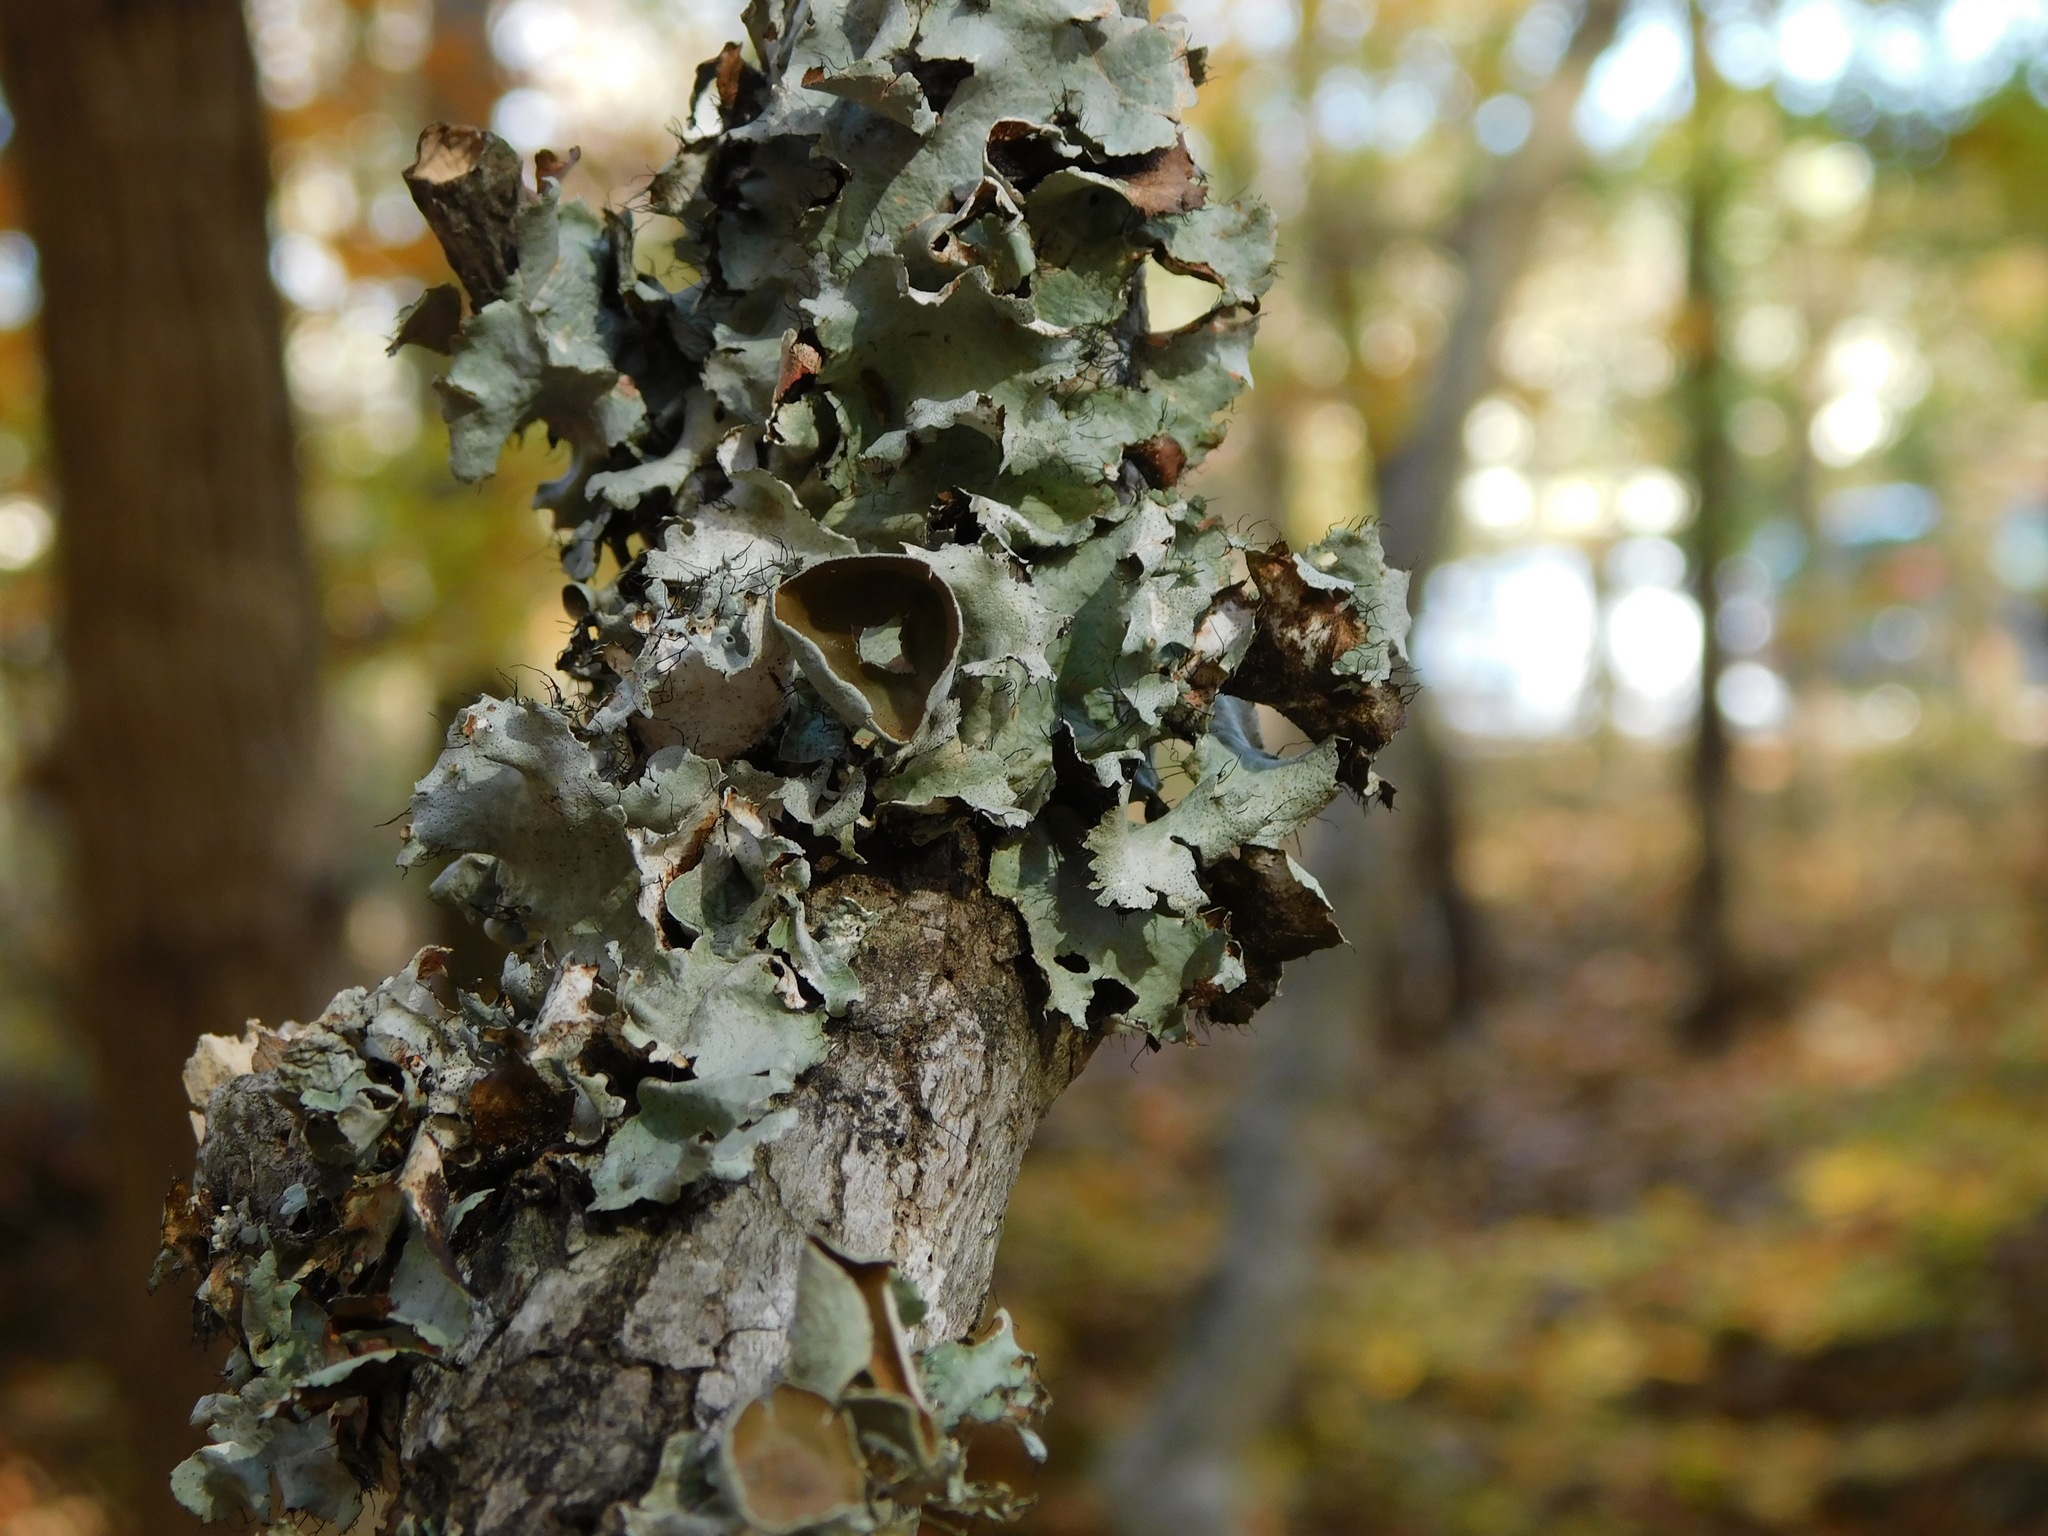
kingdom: Fungi
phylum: Ascomycota
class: Lecanoromycetes
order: Lecanorales
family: Parmeliaceae
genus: Parmotrema
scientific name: Parmotrema perforatum
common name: Perforated ruffle lichen
